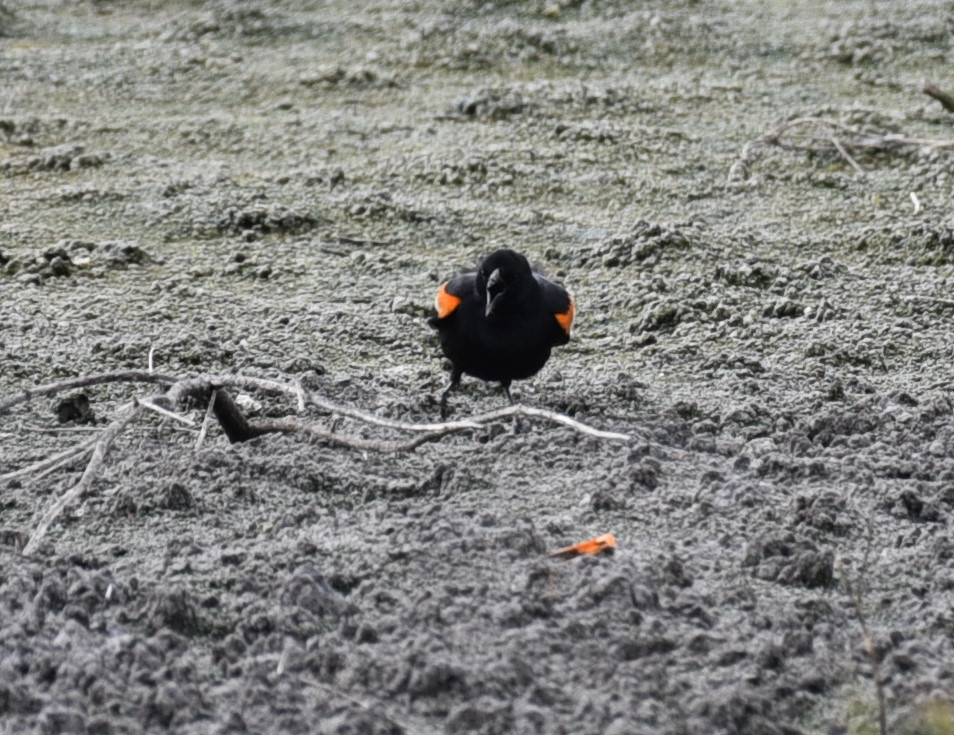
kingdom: Animalia
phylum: Chordata
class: Aves
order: Passeriformes
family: Icteridae
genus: Agelaius
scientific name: Agelaius phoeniceus
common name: Red-winged blackbird
